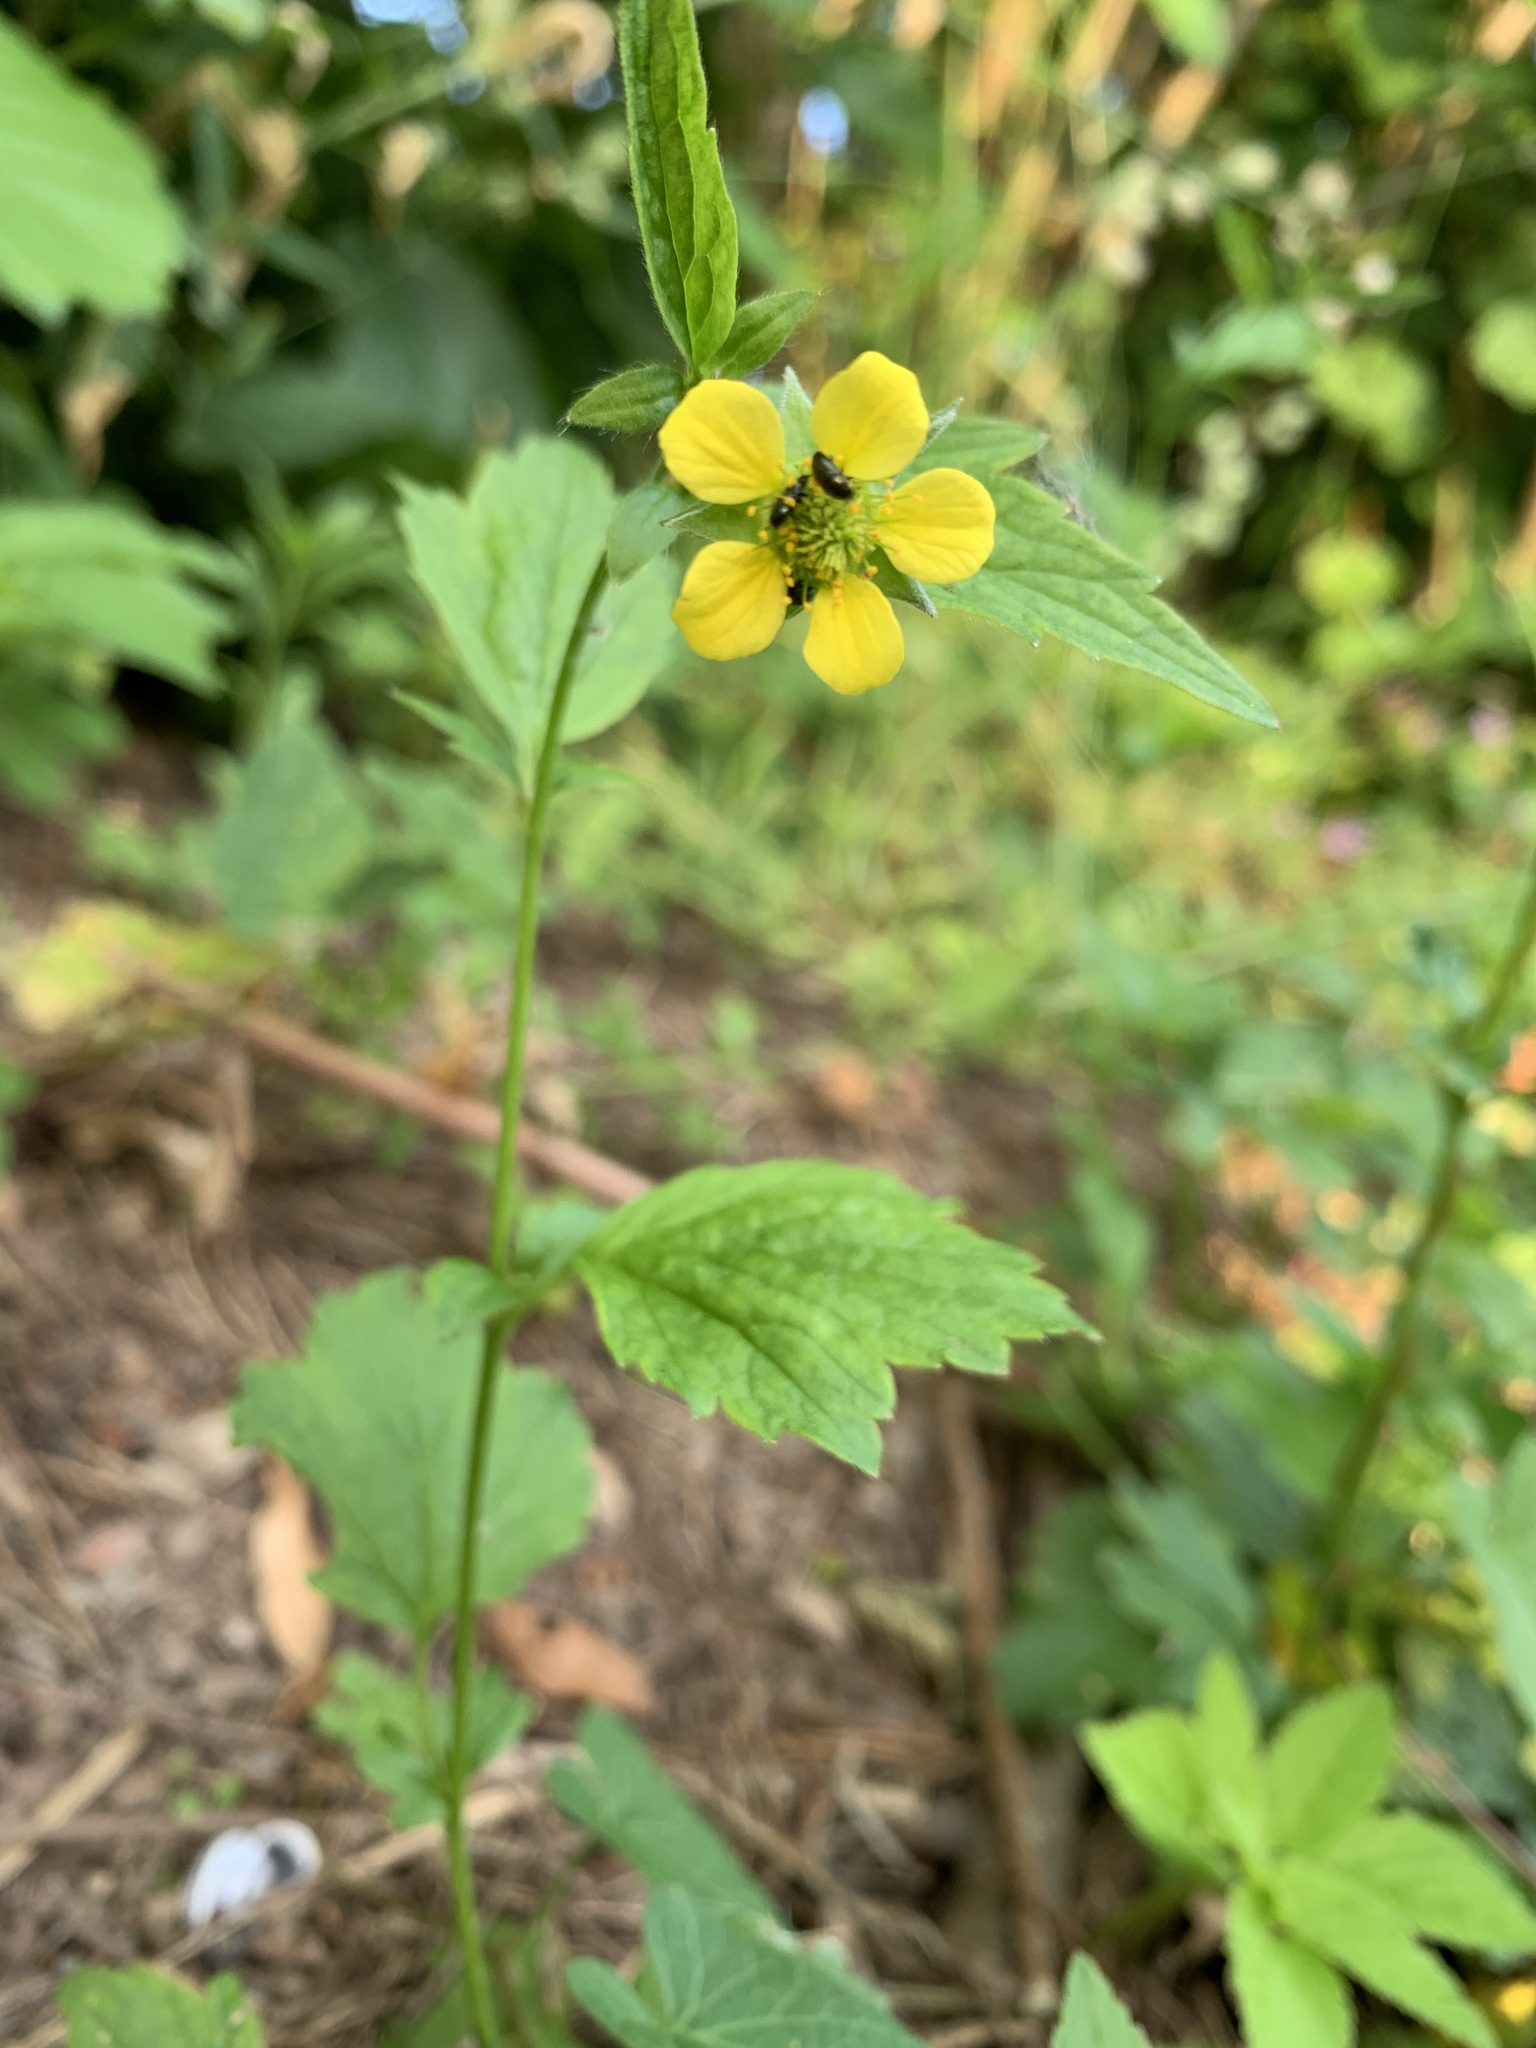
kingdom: Plantae
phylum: Tracheophyta
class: Magnoliopsida
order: Rosales
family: Rosaceae
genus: Geum
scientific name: Geum urbanum
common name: Wood avens
